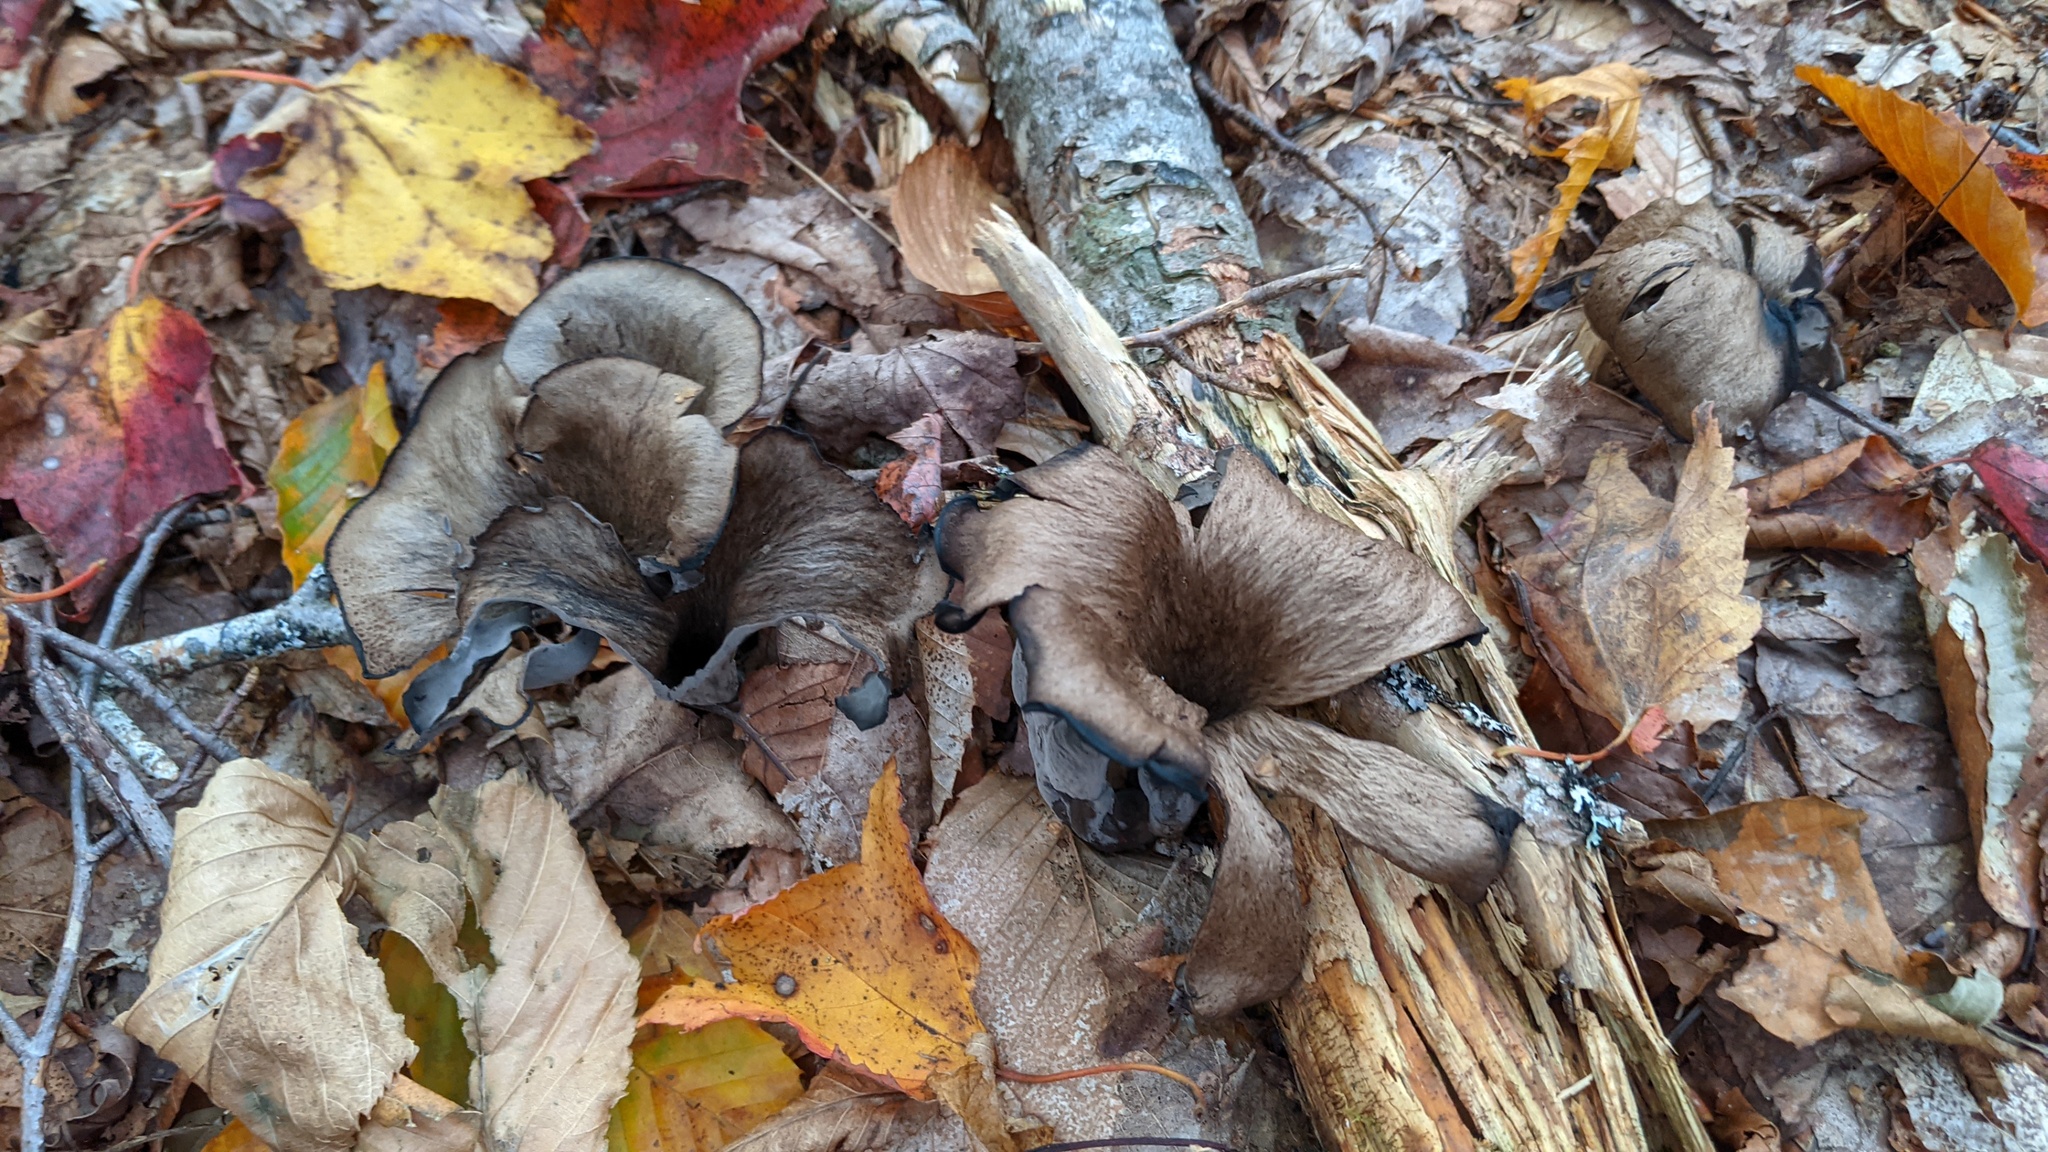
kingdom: Fungi
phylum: Basidiomycota
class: Agaricomycetes
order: Cantharellales
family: Hydnaceae
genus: Craterellus
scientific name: Craterellus cornucopioides
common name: Horn of plenty
